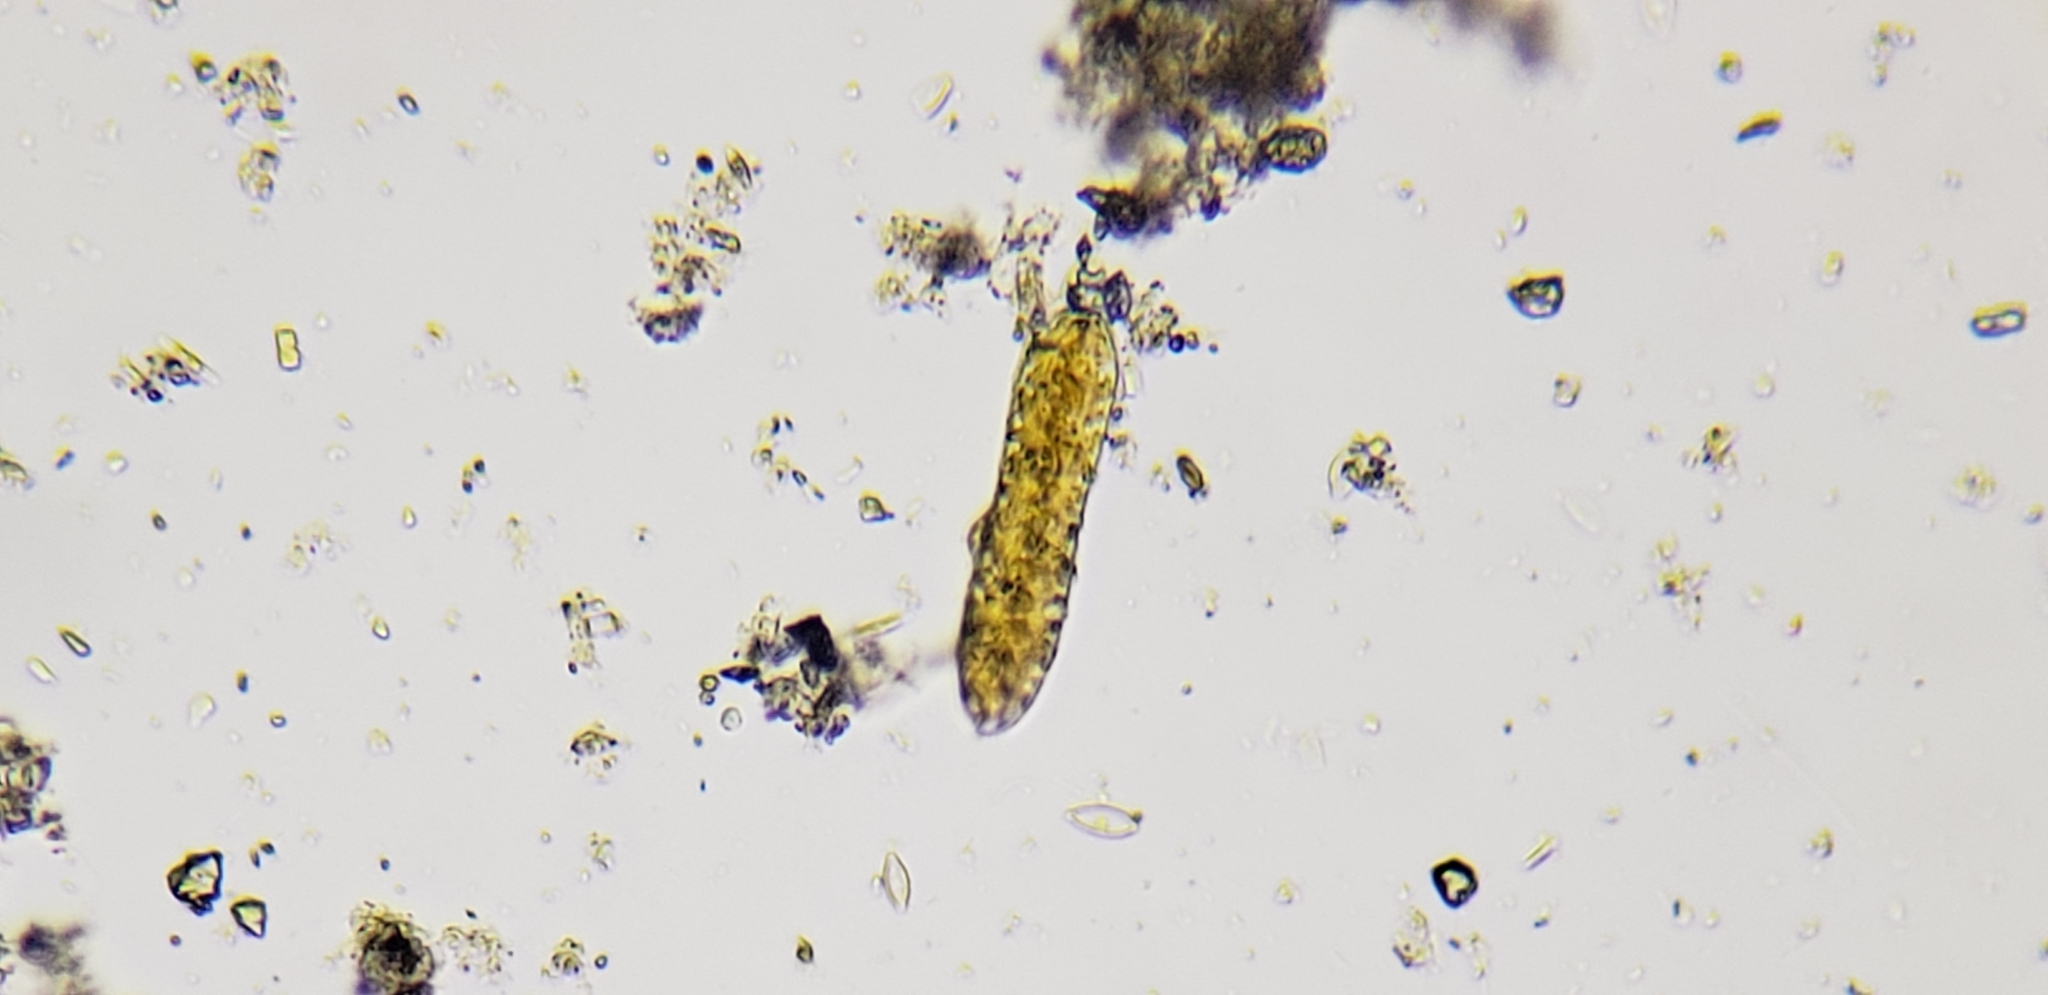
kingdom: Chromista
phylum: Ochrophyta
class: Bacillariophyceae
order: Surirellales
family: Surirellaceae
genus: Surirella
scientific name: Surirella librile
